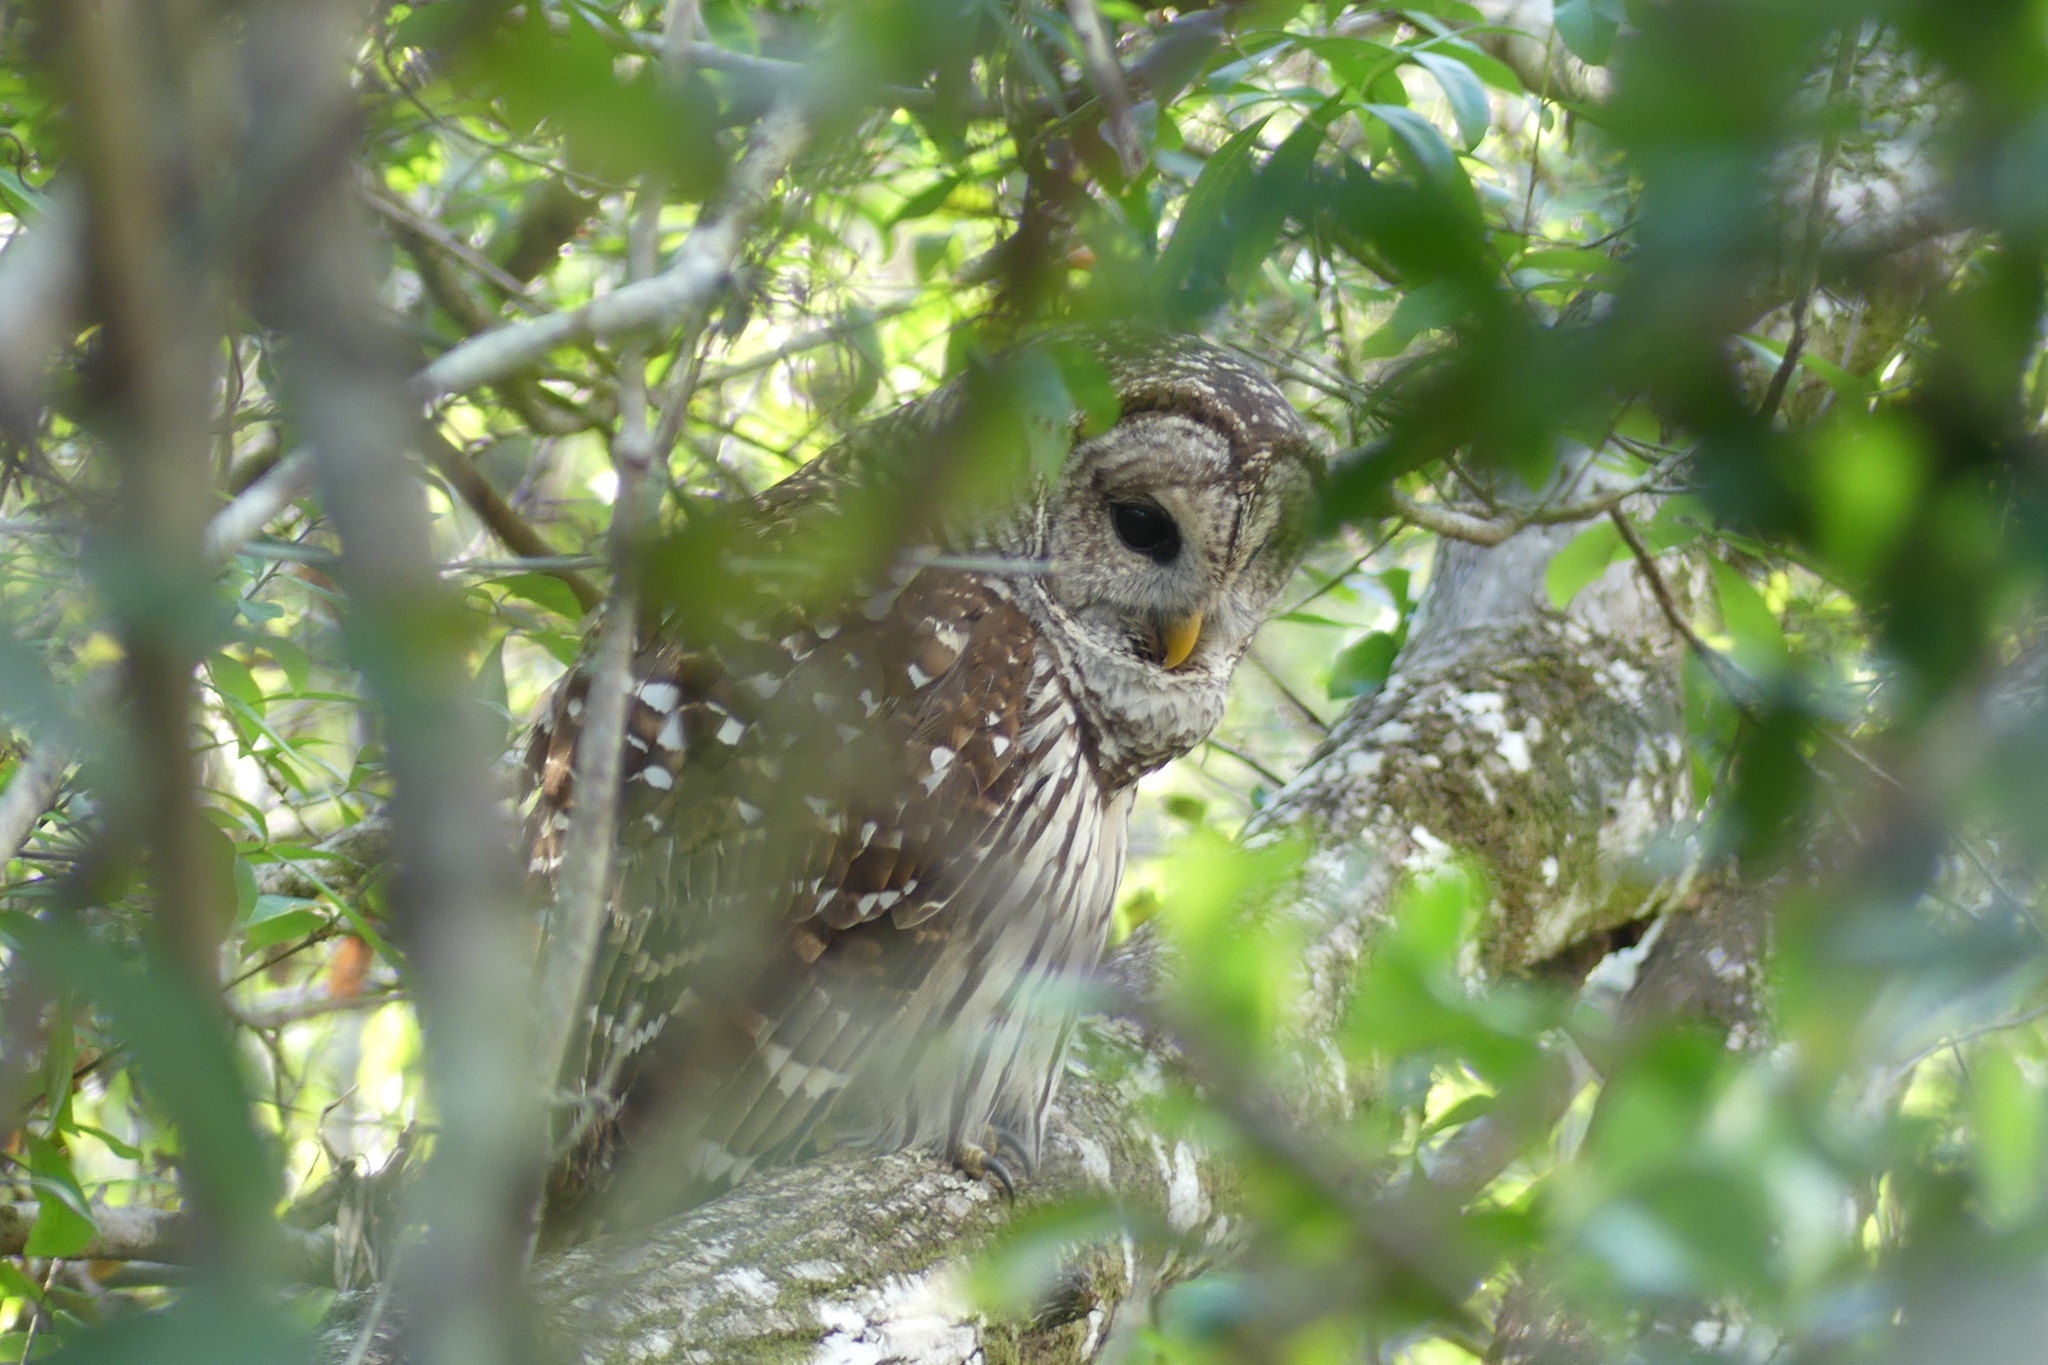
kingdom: Animalia
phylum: Chordata
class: Aves
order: Strigiformes
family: Strigidae
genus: Strix
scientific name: Strix varia
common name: Barred owl
